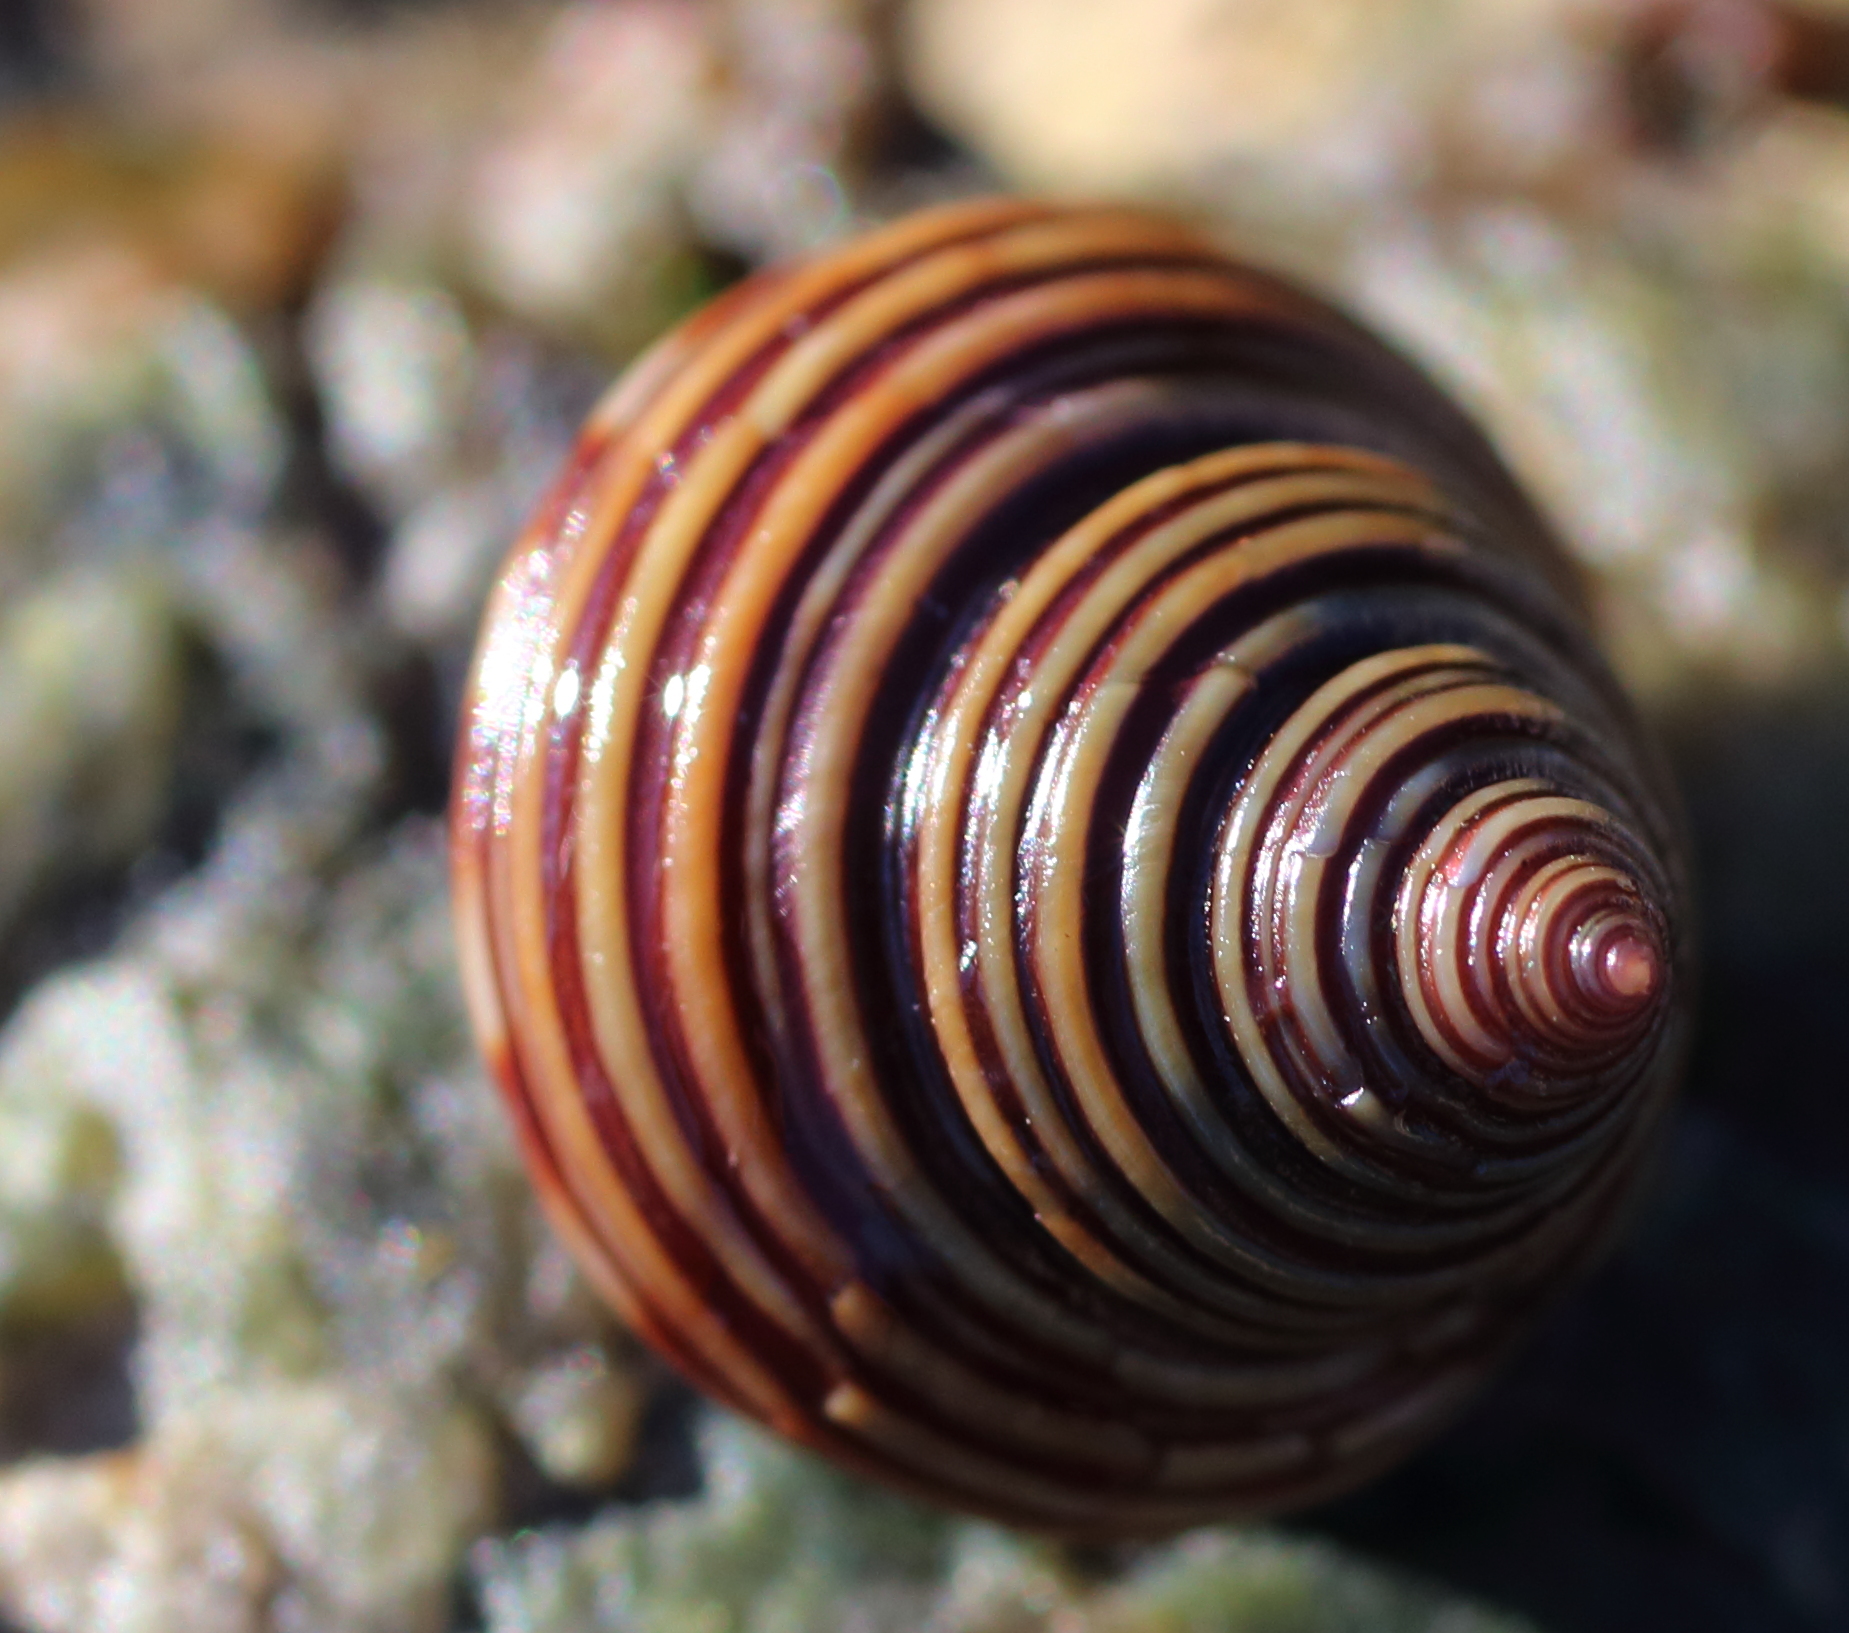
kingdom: Animalia
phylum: Mollusca
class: Gastropoda
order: Trochida
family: Calliostomatidae
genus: Calliostoma
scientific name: Calliostoma ligatum
